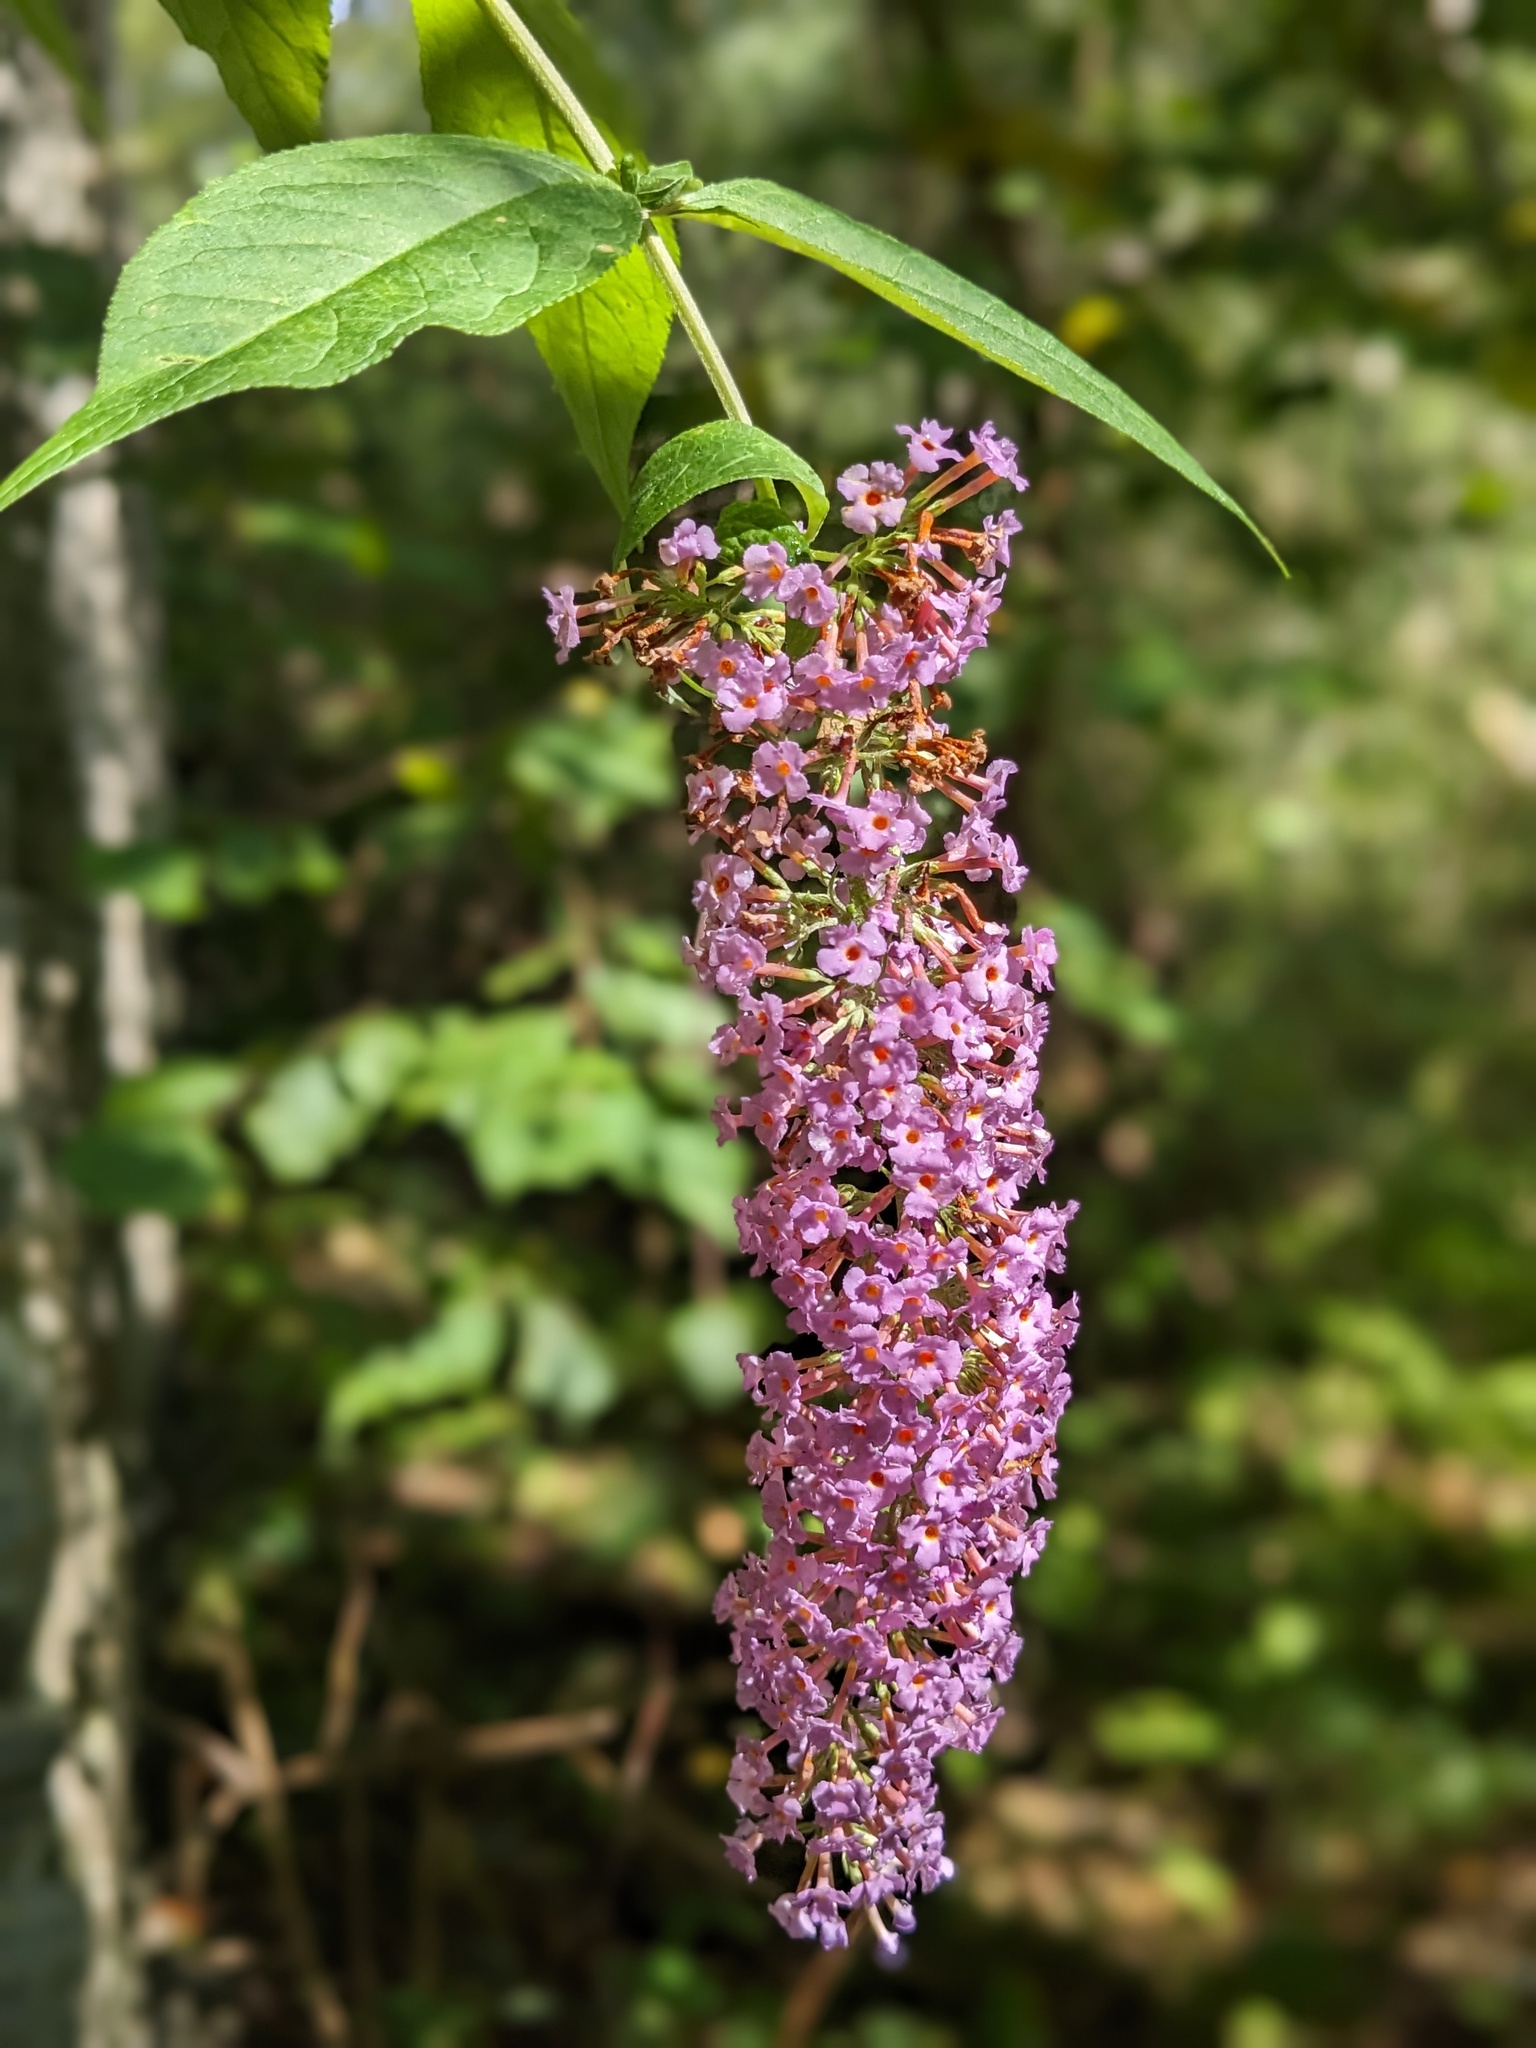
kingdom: Plantae
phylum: Tracheophyta
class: Magnoliopsida
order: Lamiales
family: Scrophulariaceae
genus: Buddleja
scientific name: Buddleja davidii
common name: Butterfly-bush
